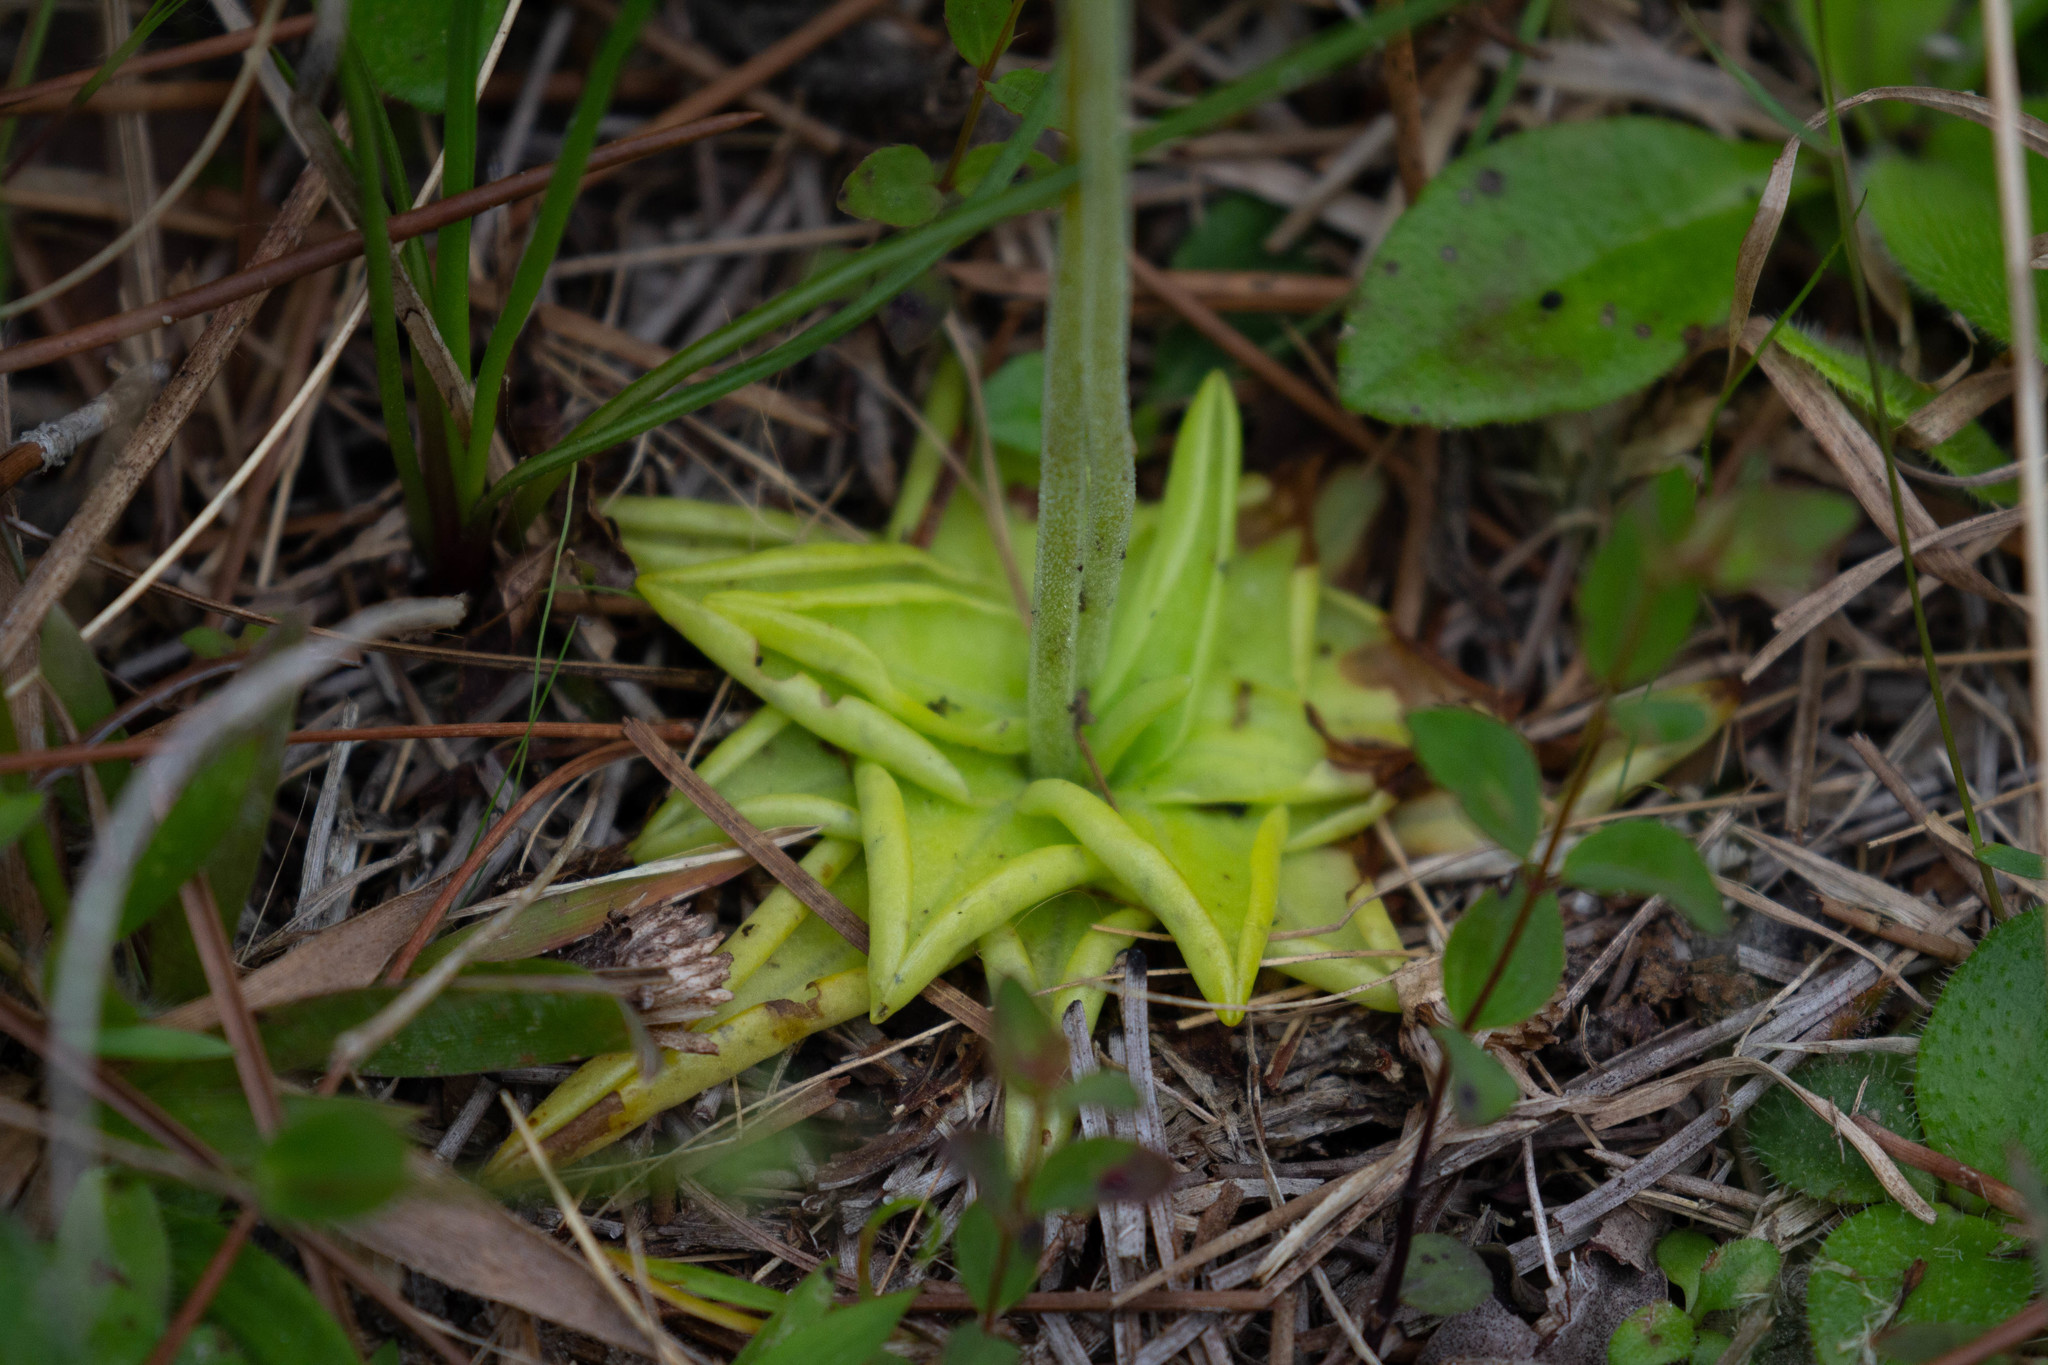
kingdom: Plantae
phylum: Tracheophyta
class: Magnoliopsida
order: Lamiales
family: Lentibulariaceae
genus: Pinguicula
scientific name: Pinguicula lutea
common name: Yellow butterwort
